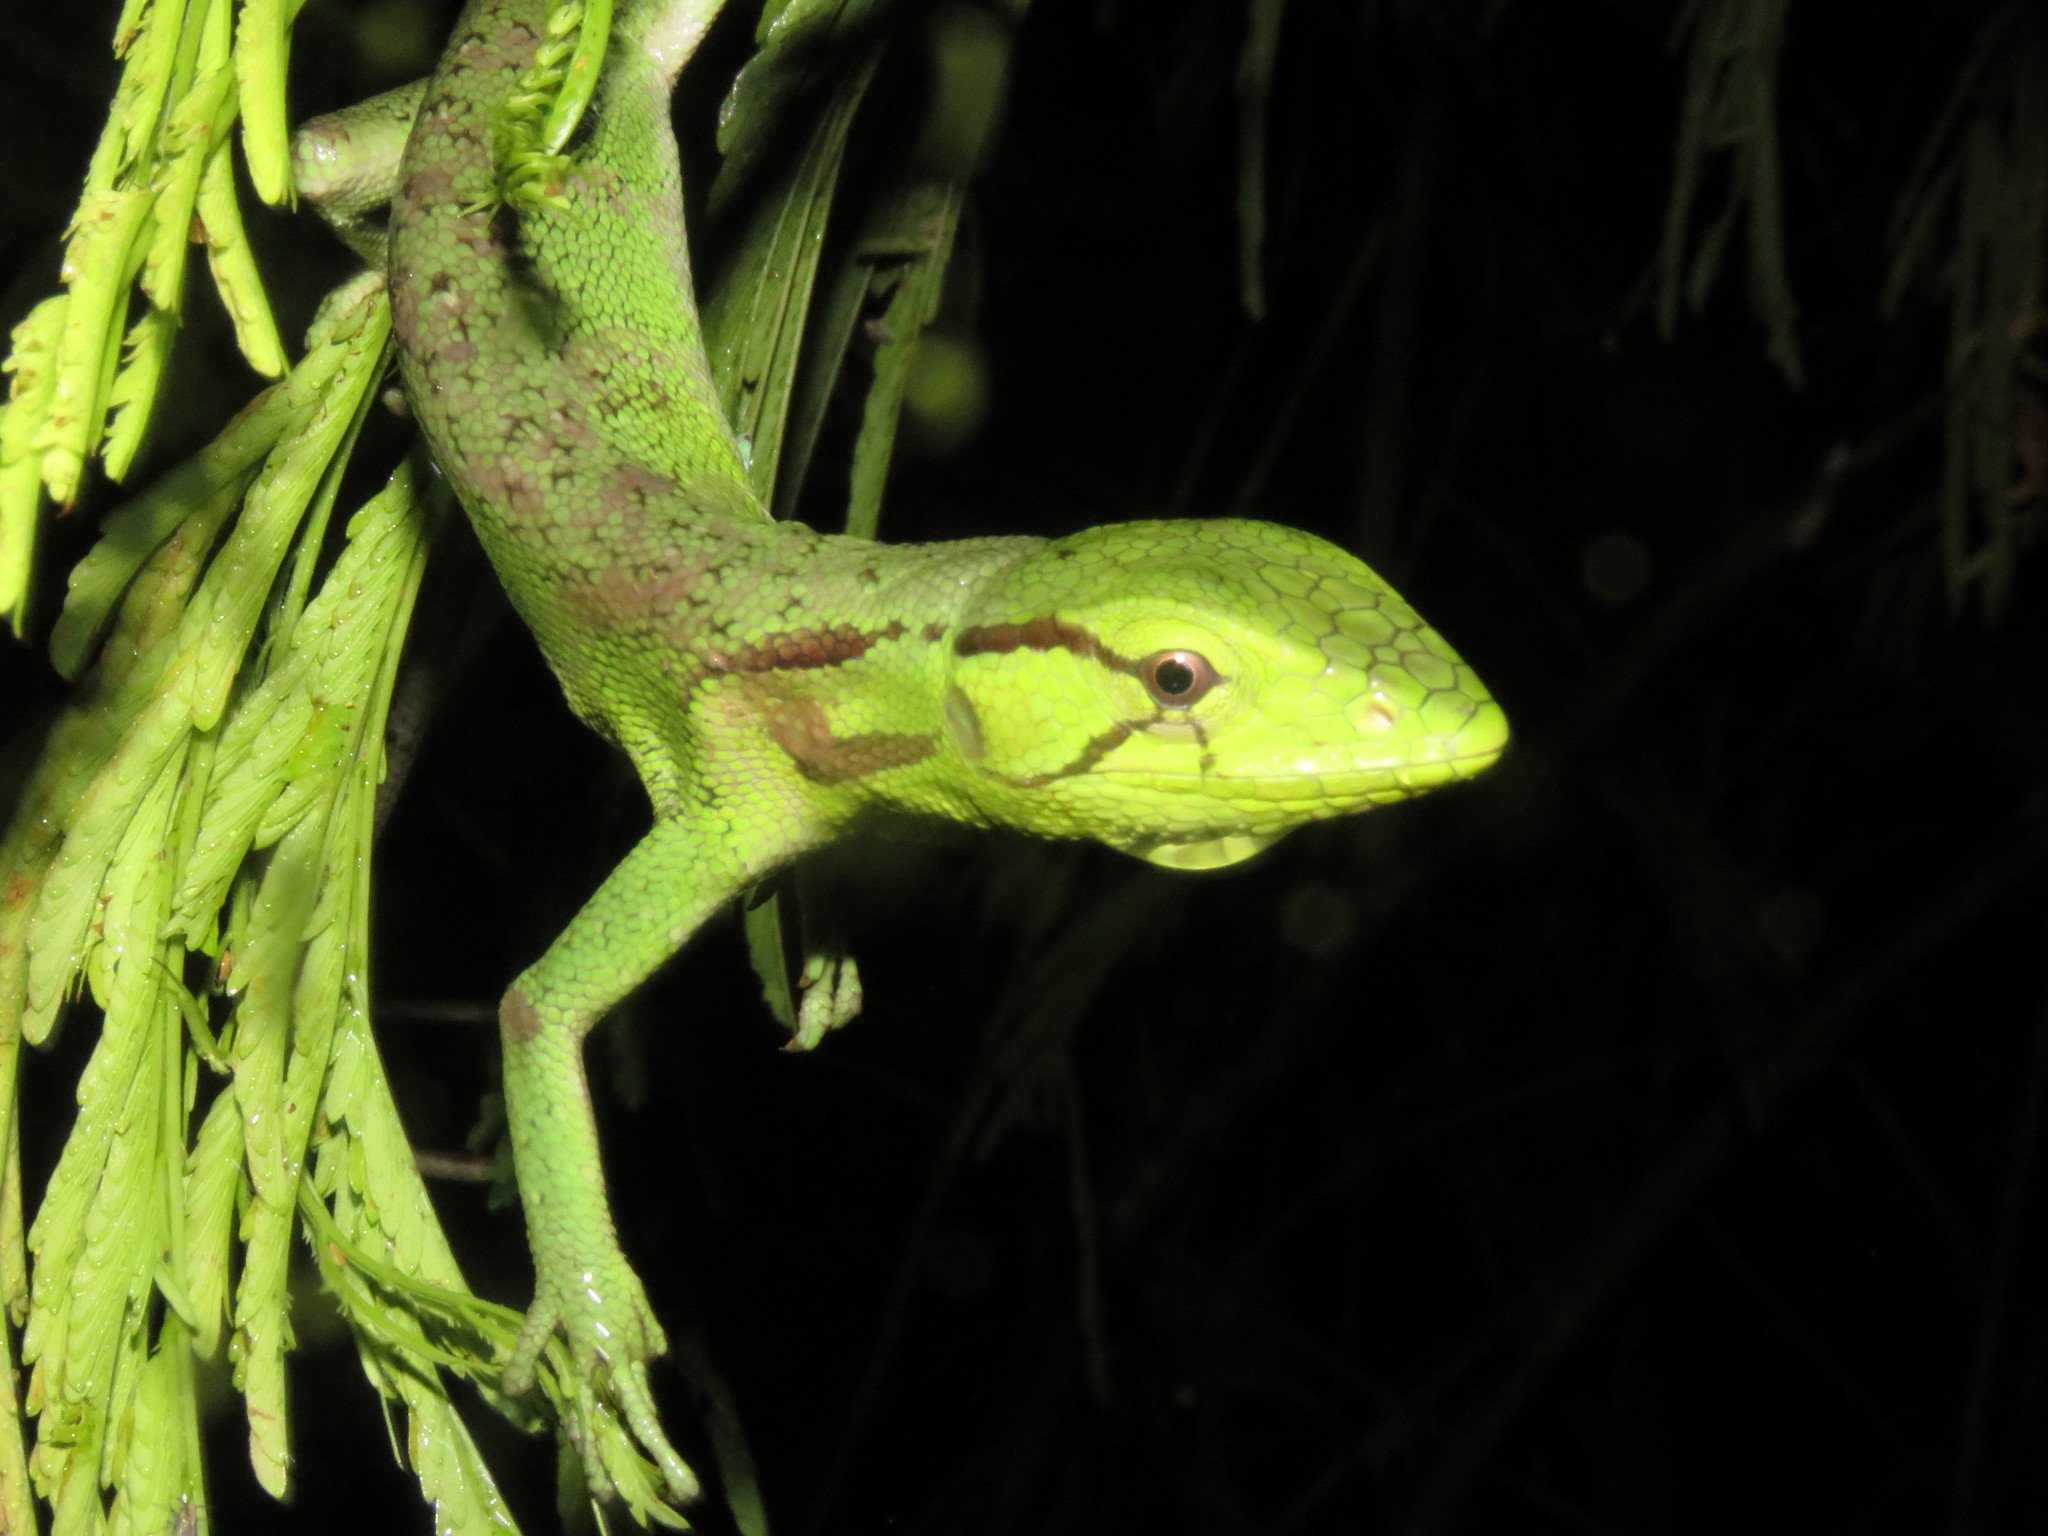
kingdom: Animalia
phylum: Chordata
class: Squamata
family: Polychrotidae
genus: Polychrus
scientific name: Polychrus liogaster
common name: Boulenger's bush anole
